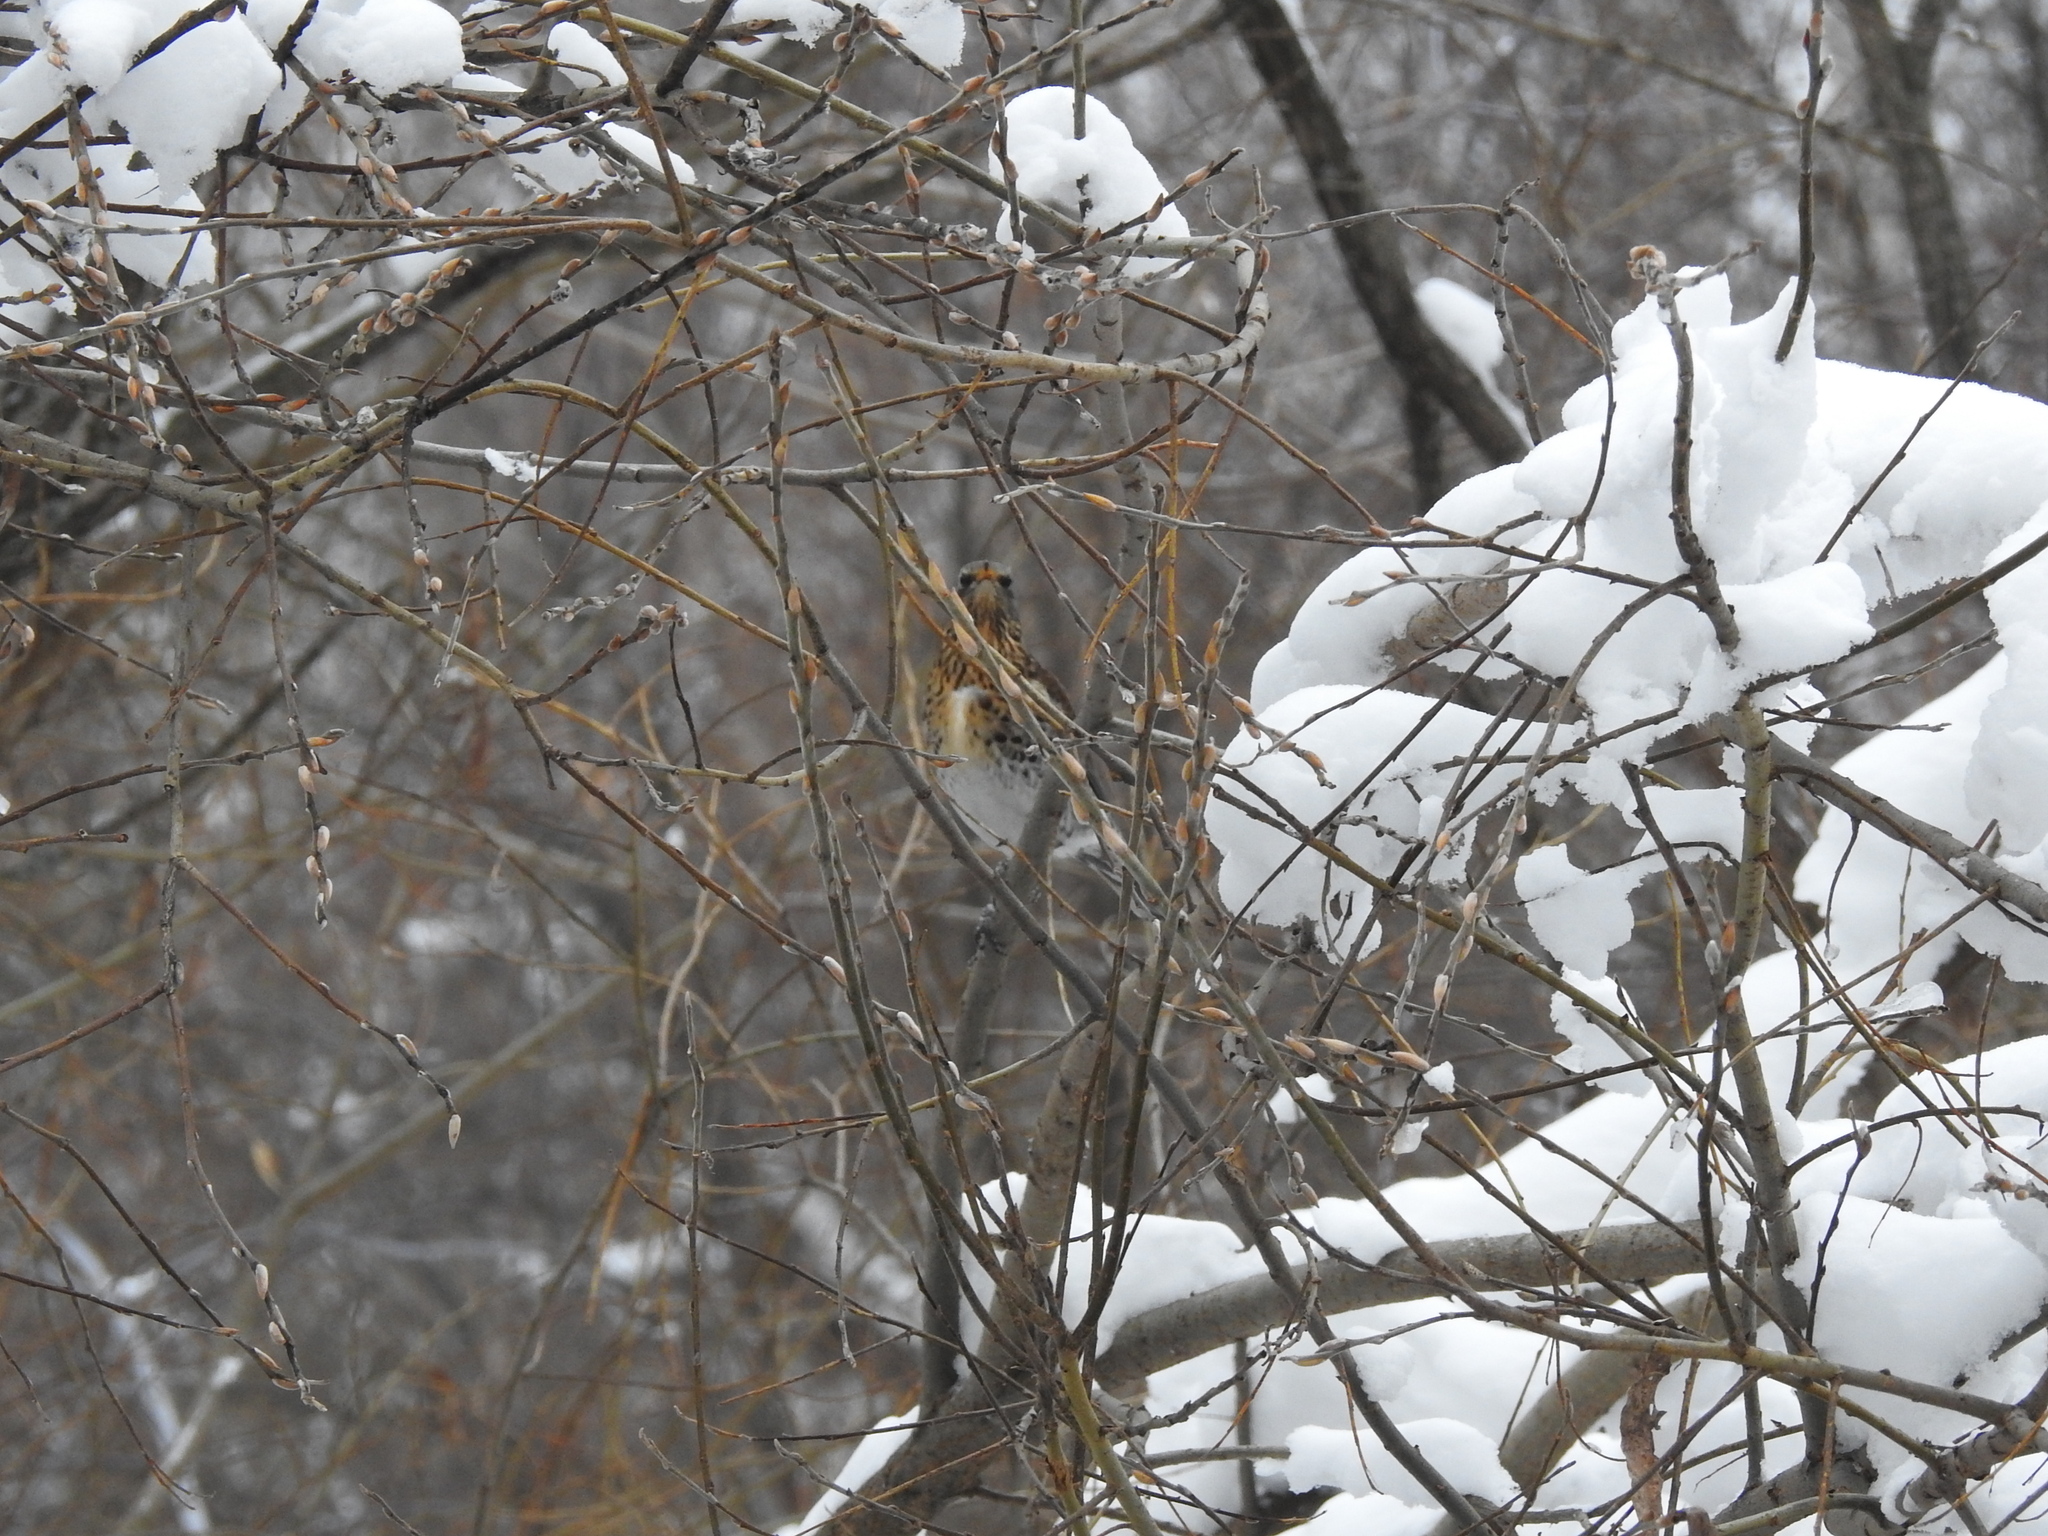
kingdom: Animalia
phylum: Chordata
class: Aves
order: Passeriformes
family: Turdidae
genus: Turdus
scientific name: Turdus pilaris
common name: Fieldfare
